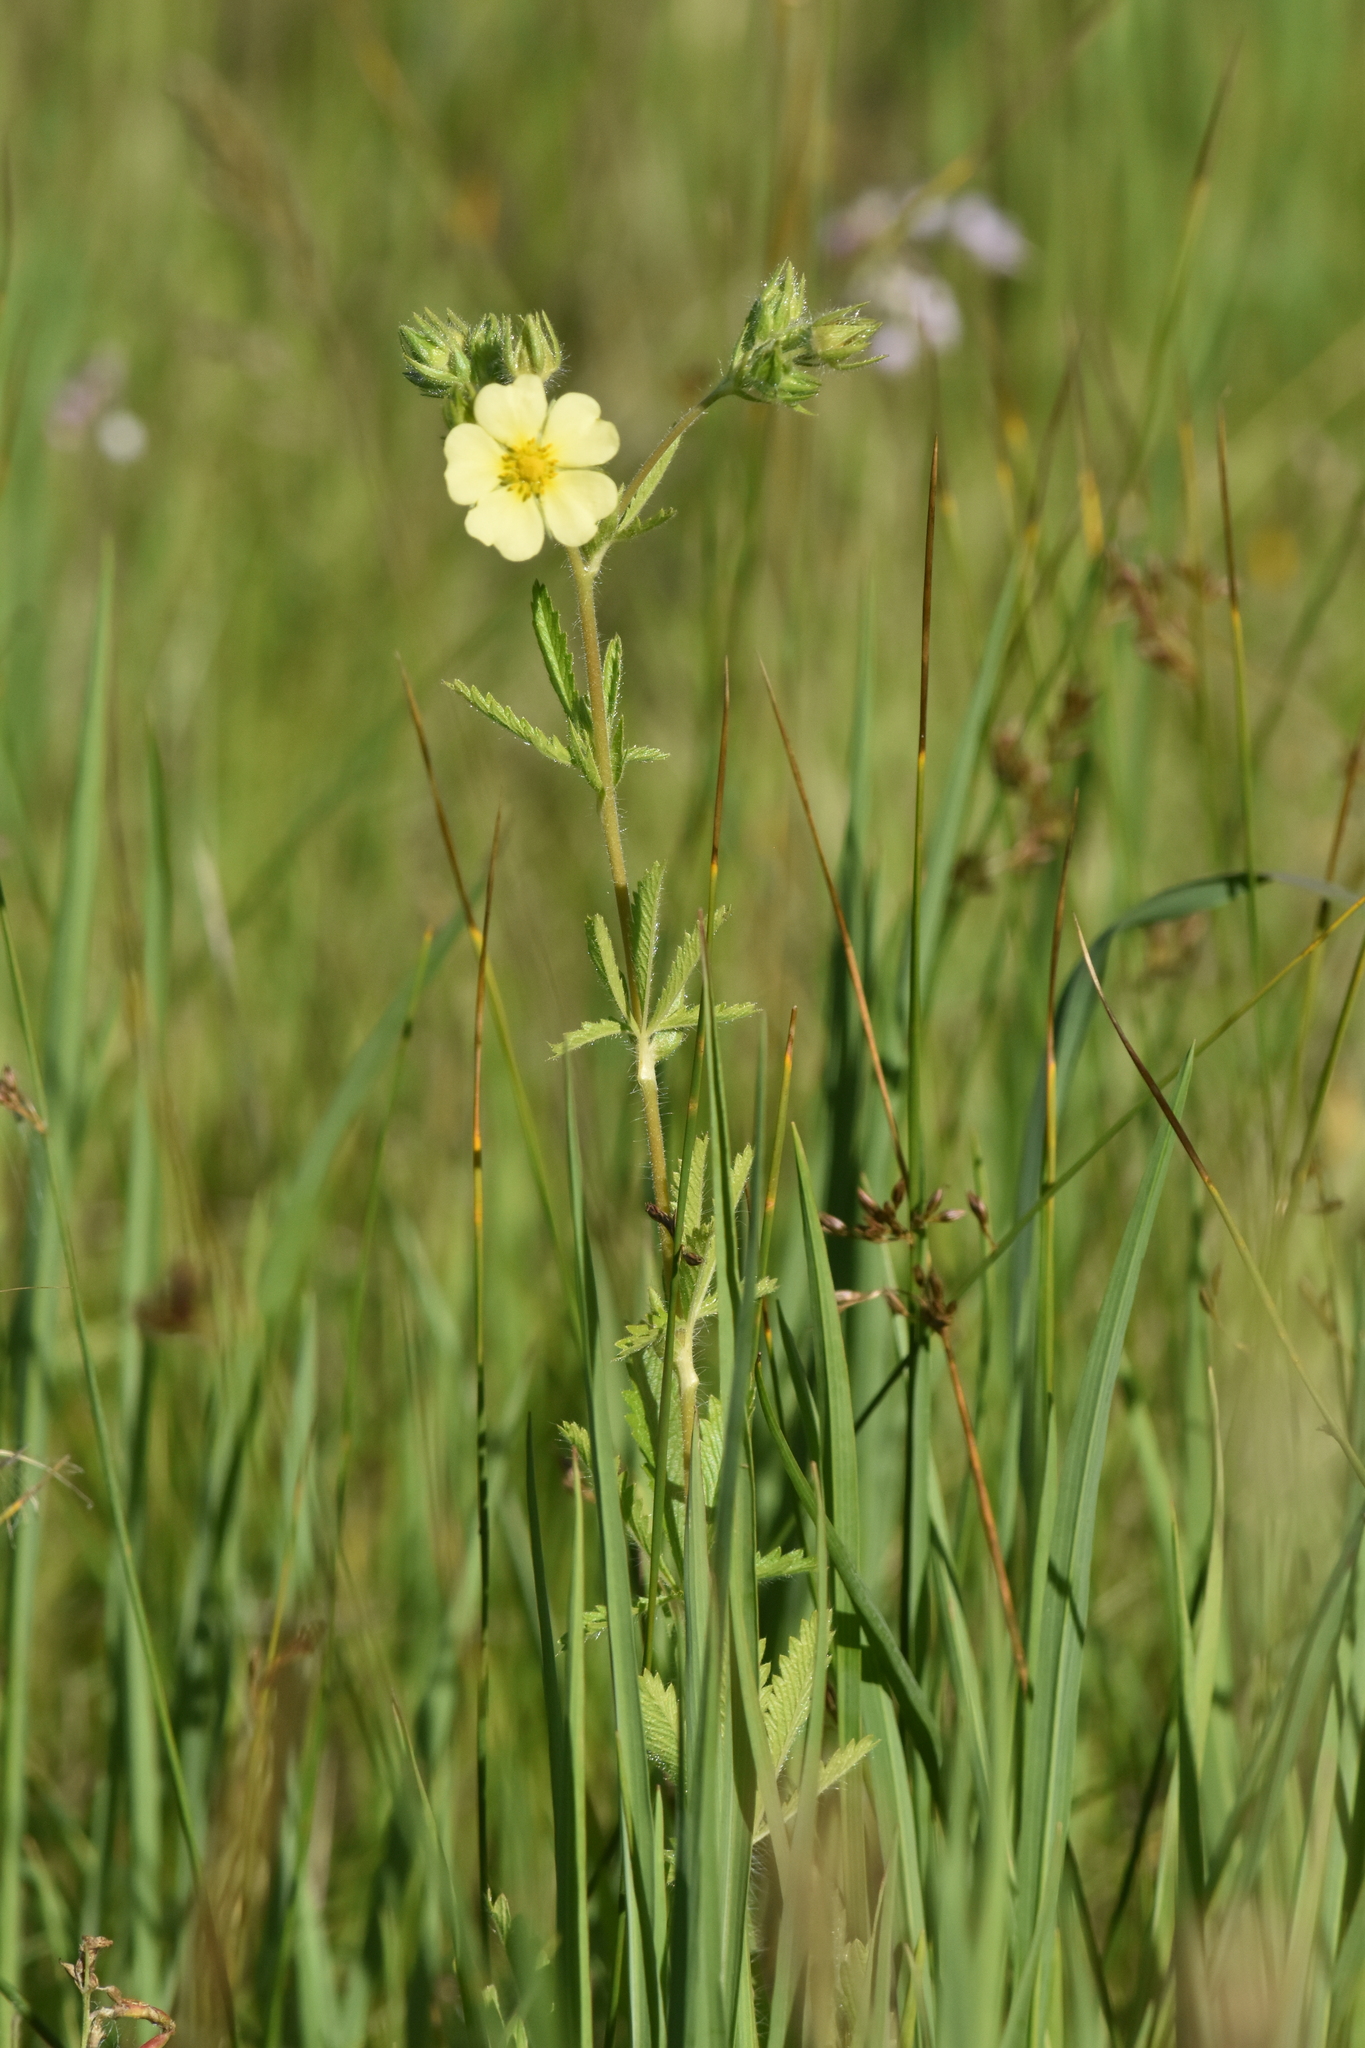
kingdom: Plantae
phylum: Tracheophyta
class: Magnoliopsida
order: Rosales
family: Rosaceae
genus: Potentilla
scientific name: Potentilla recta
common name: Sulphur cinquefoil
